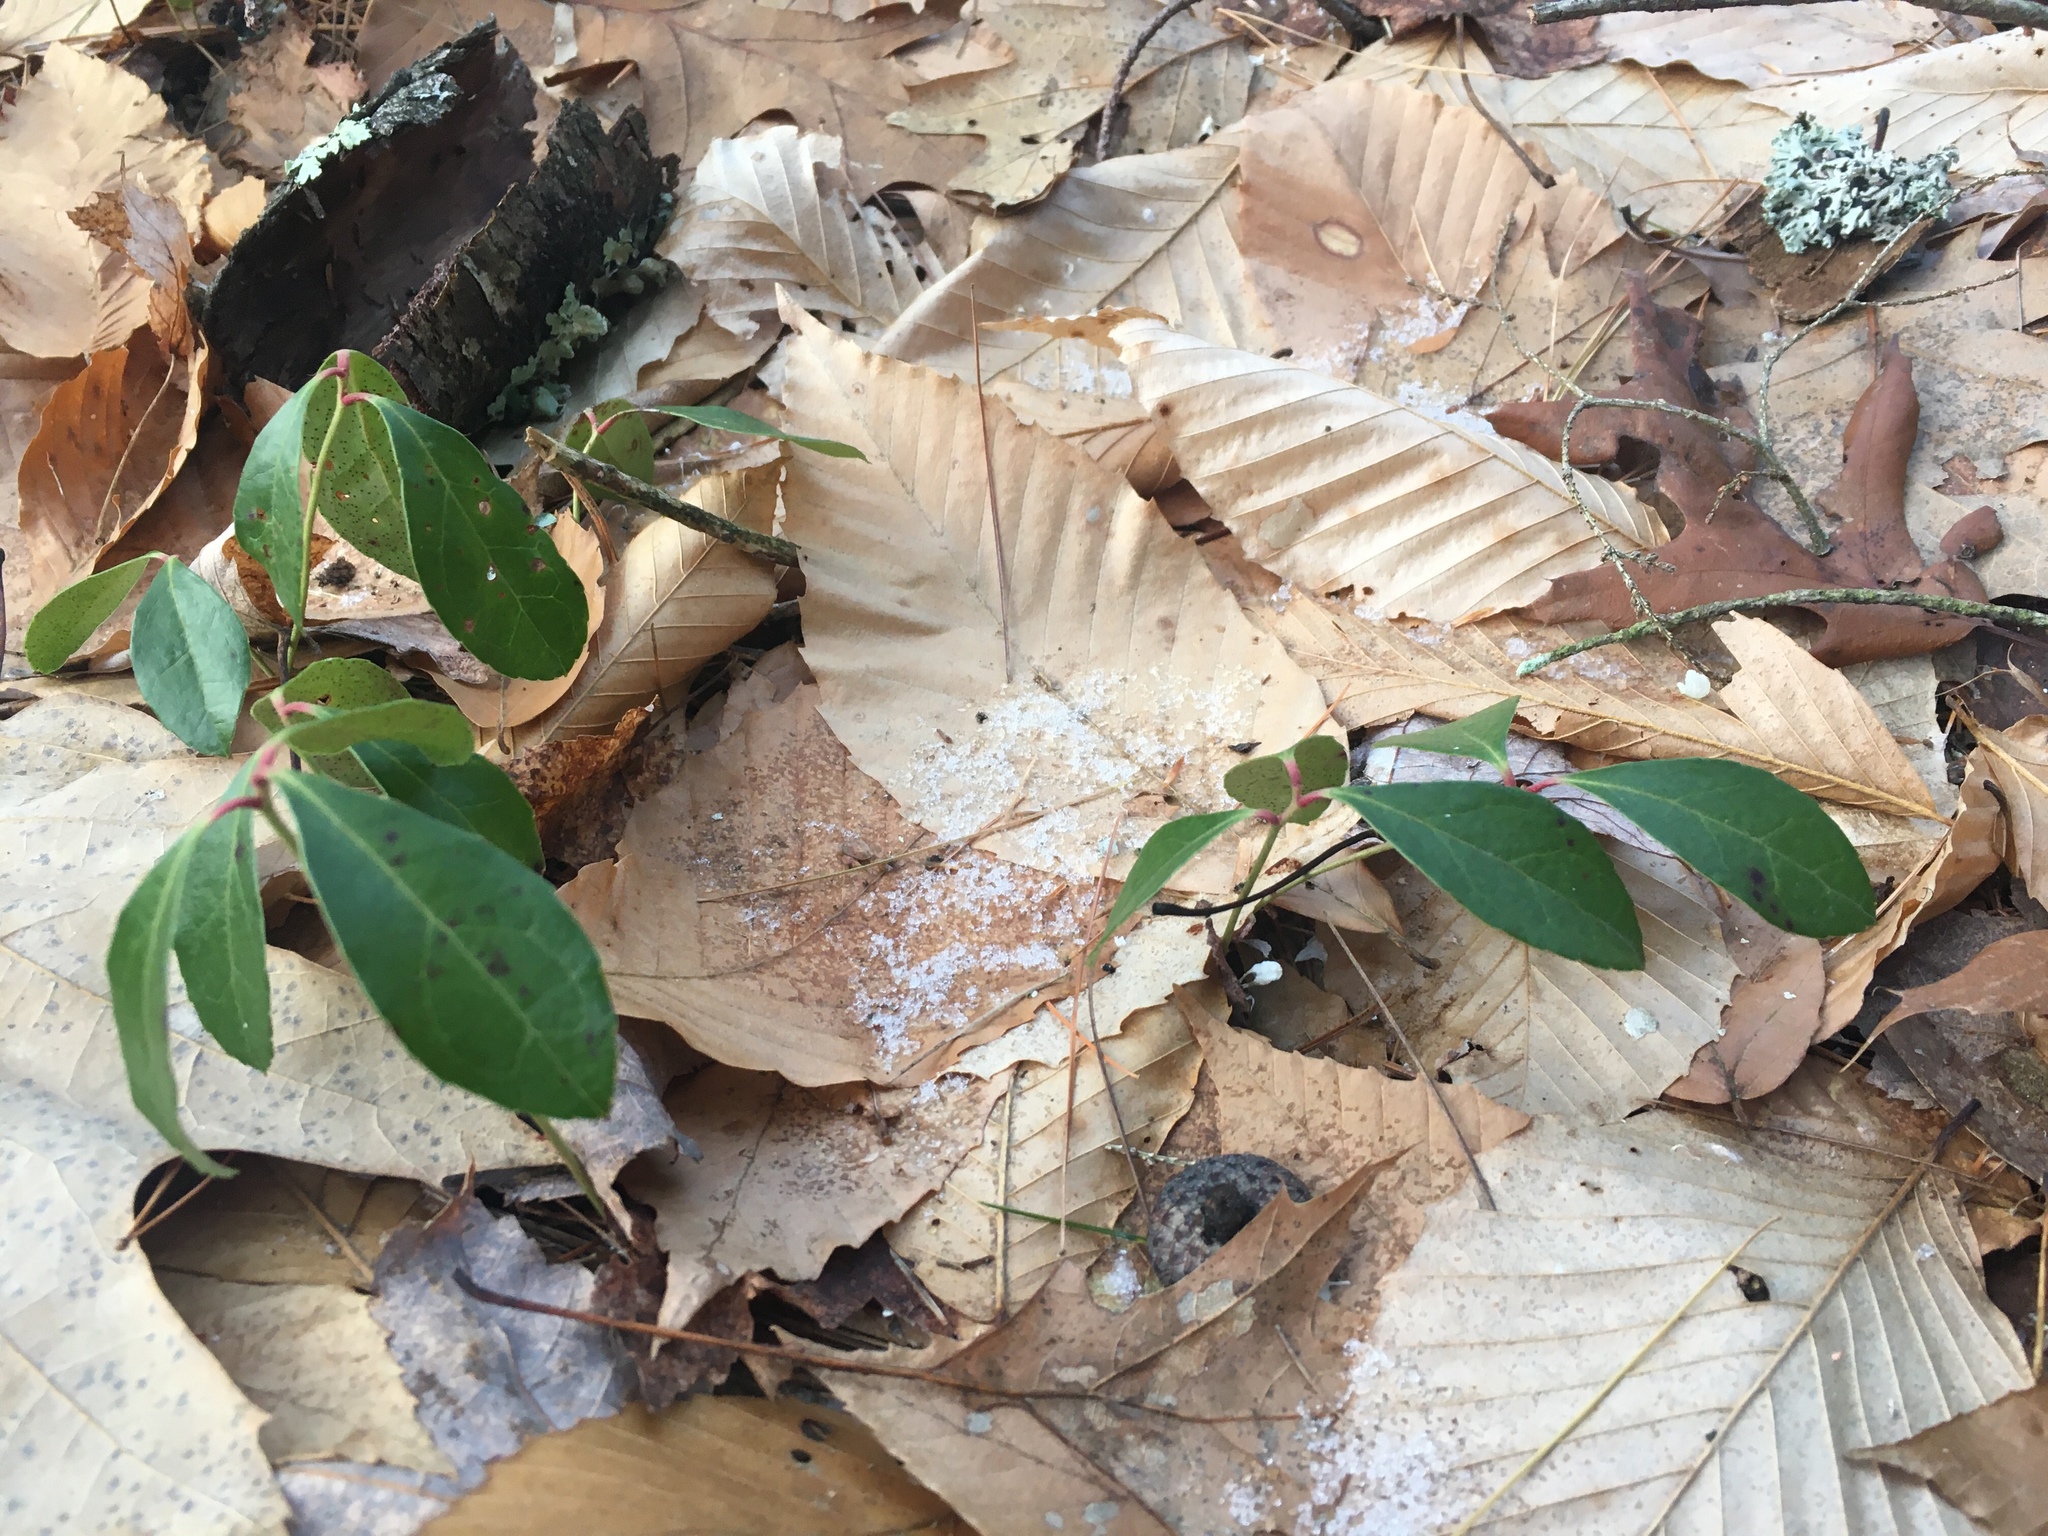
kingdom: Plantae
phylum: Tracheophyta
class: Magnoliopsida
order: Ericales
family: Ericaceae
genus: Gaultheria
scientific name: Gaultheria procumbens
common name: Checkerberry
